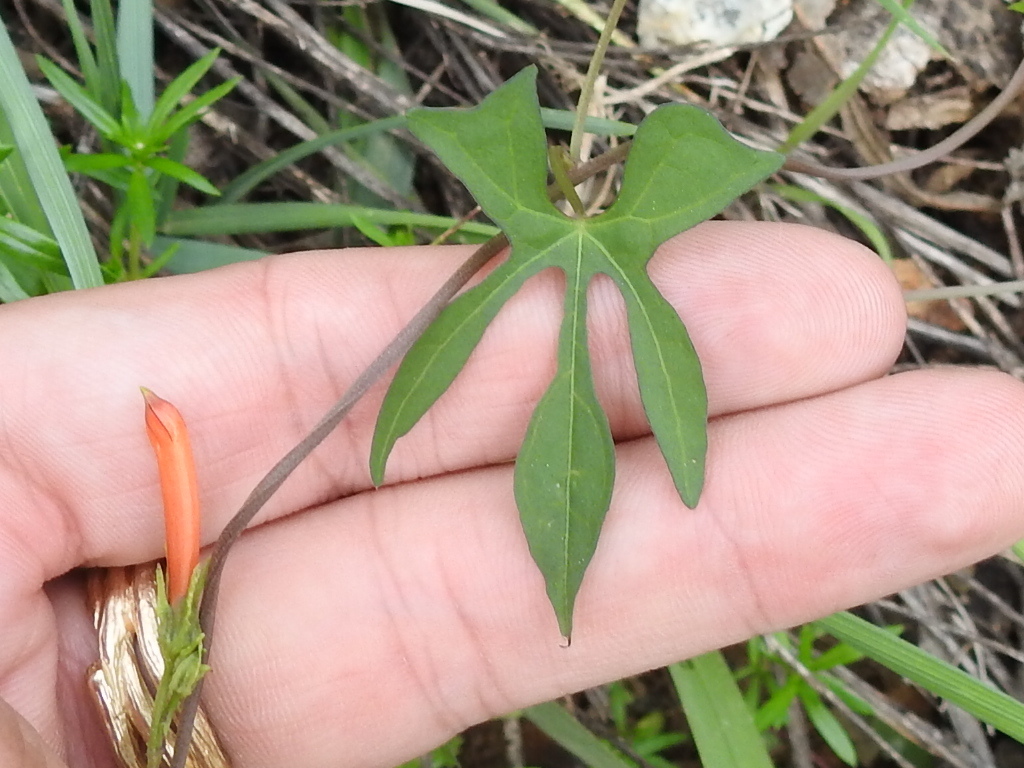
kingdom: Plantae
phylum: Tracheophyta
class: Magnoliopsida
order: Solanales
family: Convolvulaceae
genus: Ipomoea
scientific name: Ipomoea cristulata
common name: Trans-pecos morning-glory
